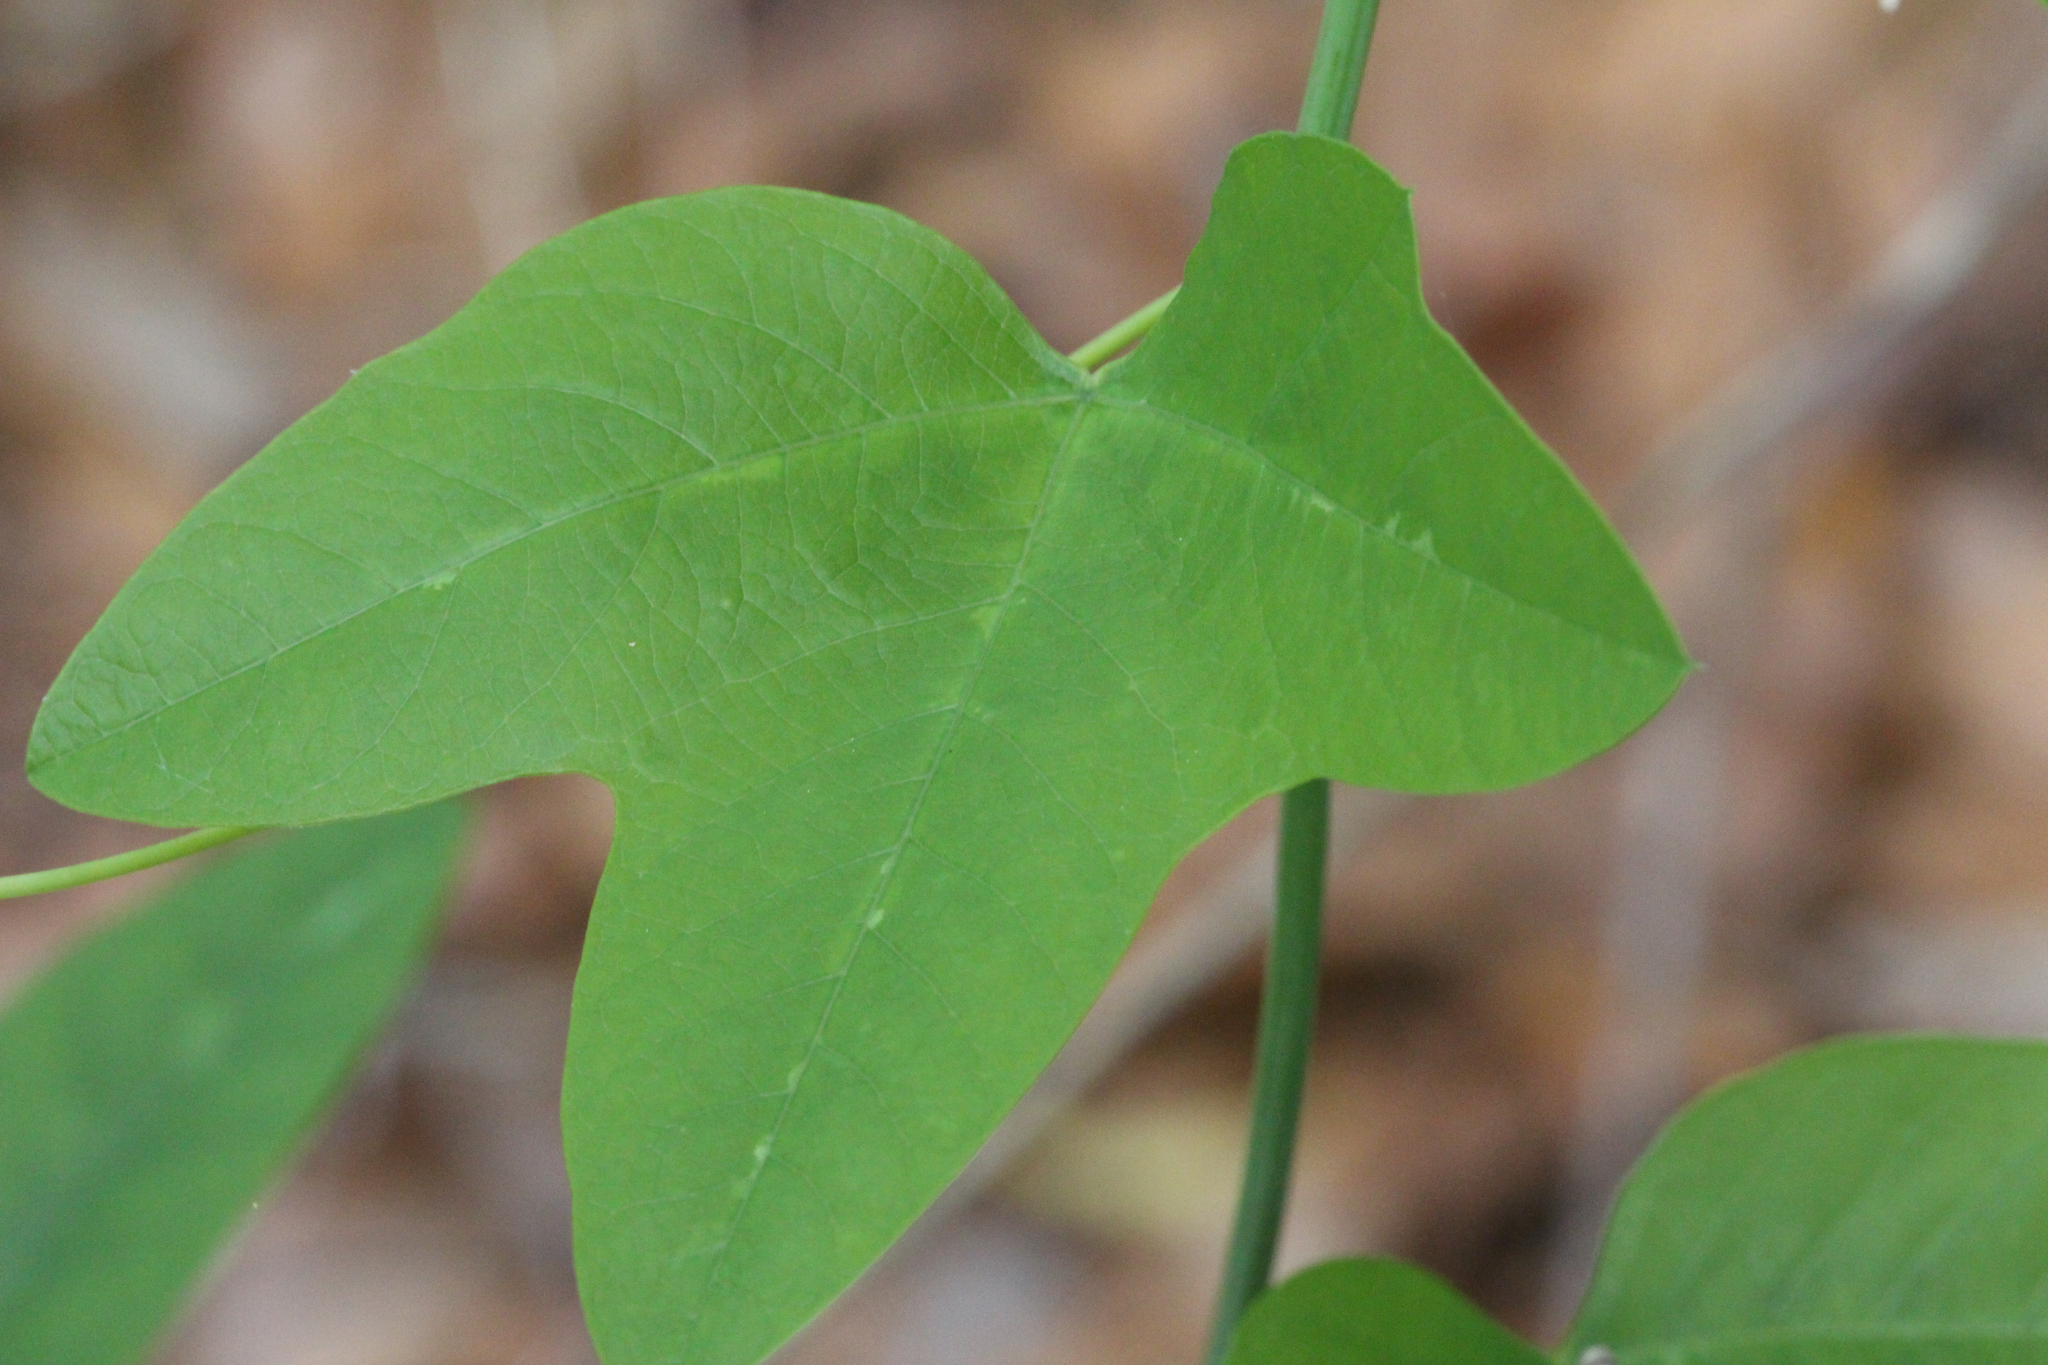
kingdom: Plantae
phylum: Tracheophyta
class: Magnoliopsida
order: Malpighiales
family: Passifloraceae
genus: Passiflora
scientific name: Passiflora lutea
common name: Yellow passionflower
